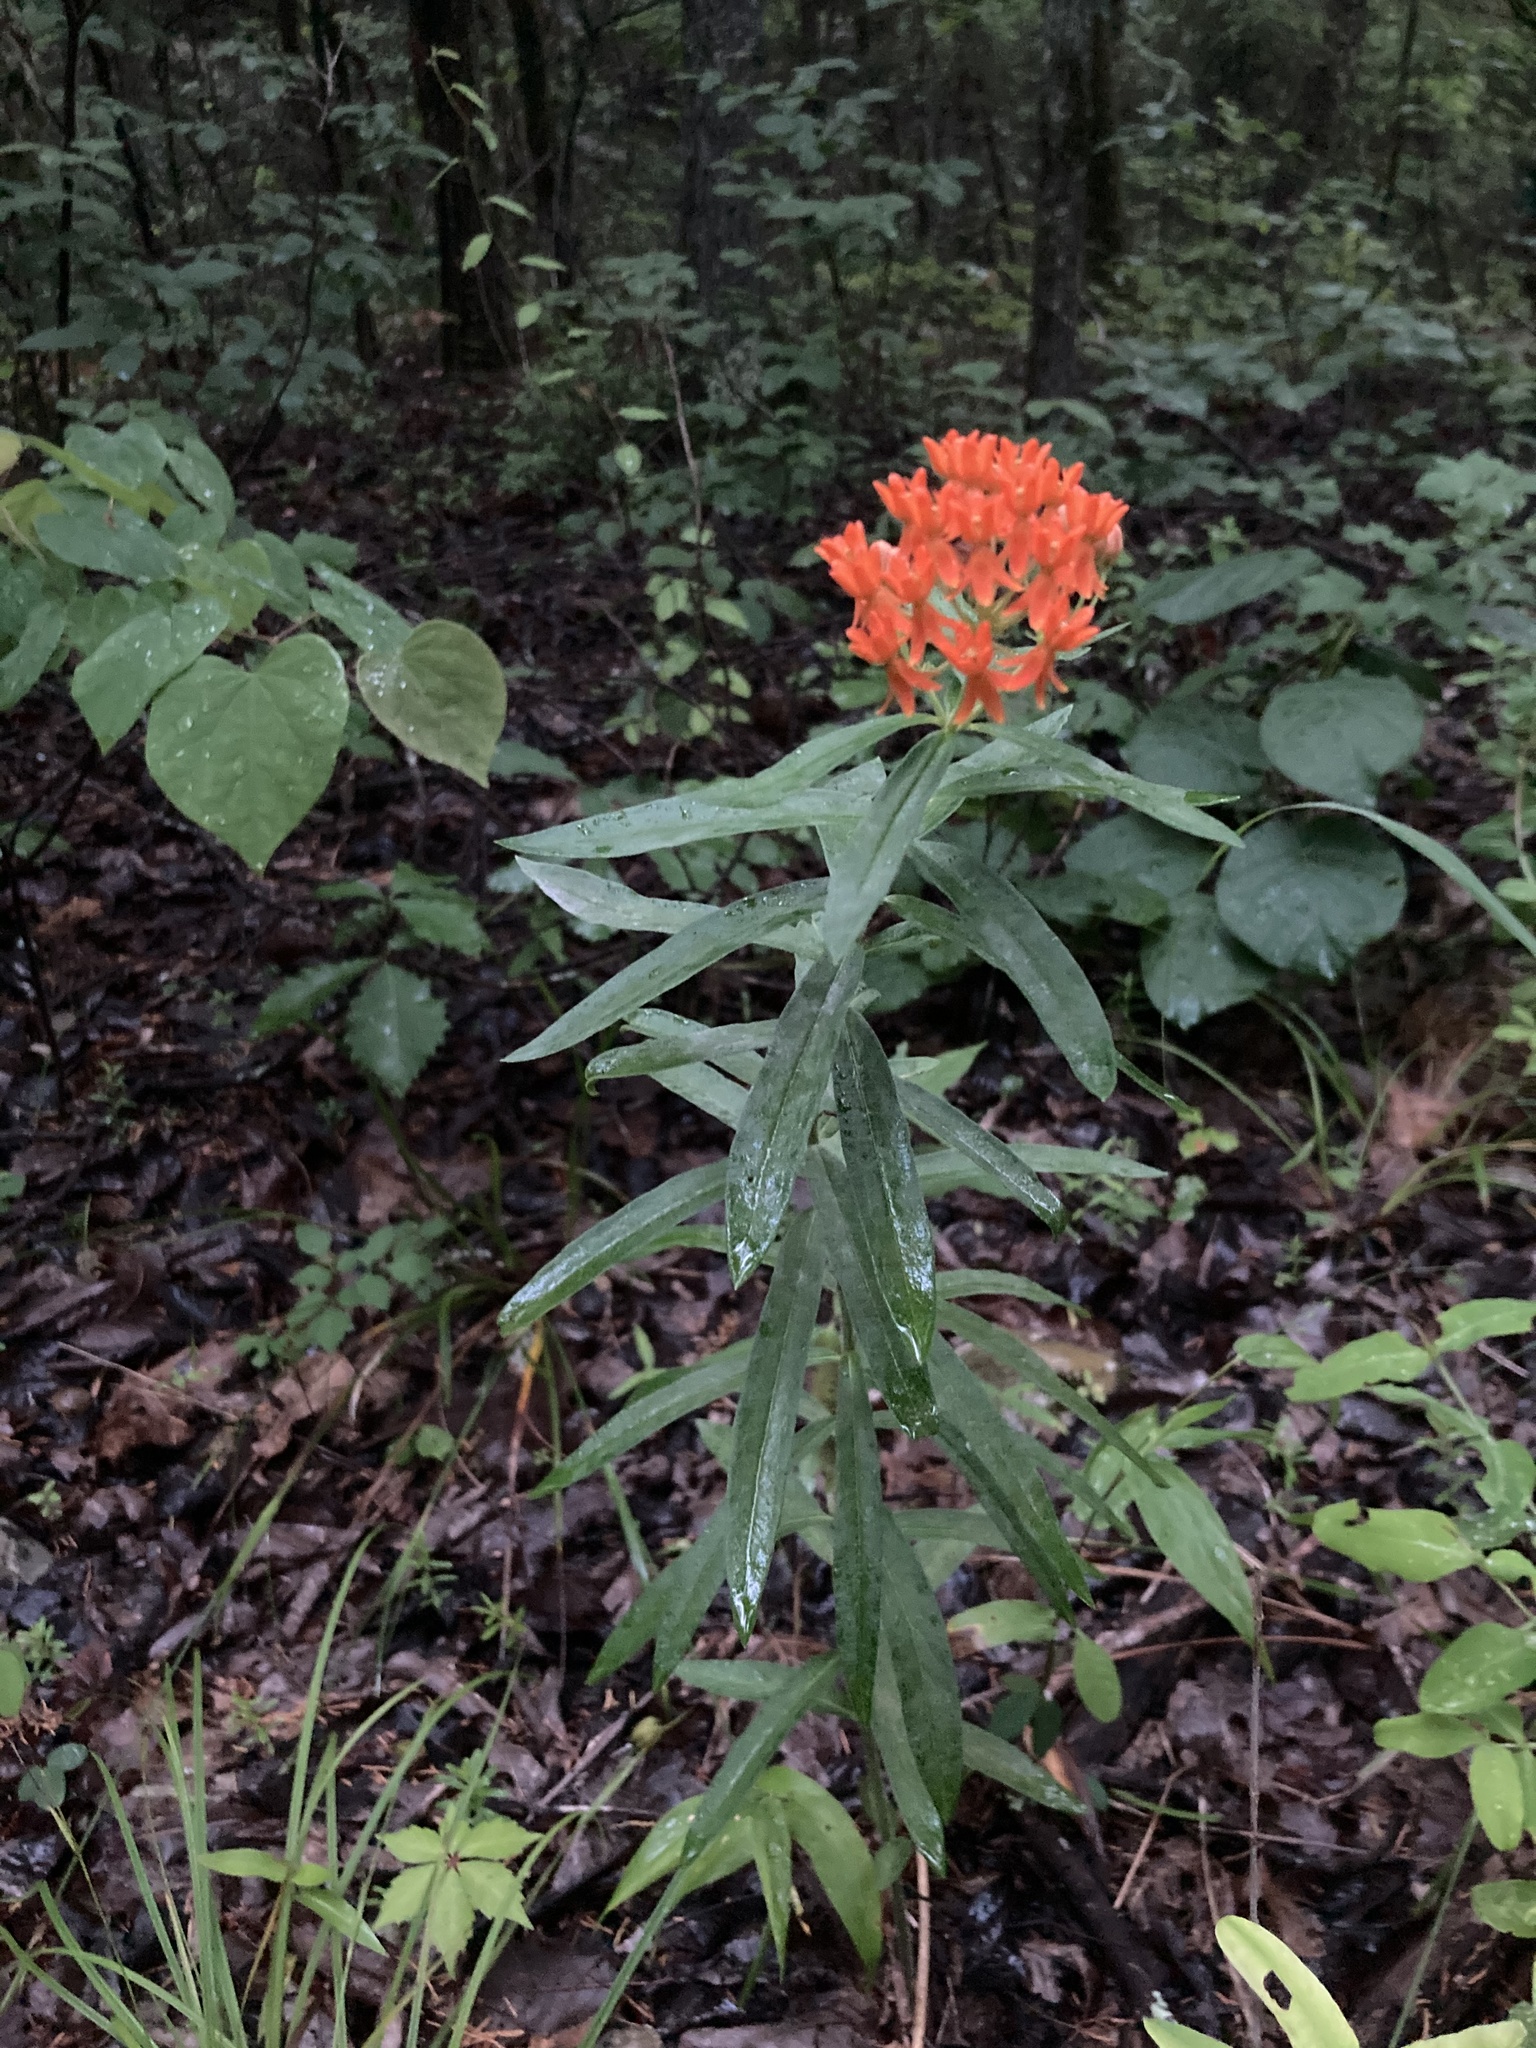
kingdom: Plantae
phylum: Tracheophyta
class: Magnoliopsida
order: Gentianales
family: Apocynaceae
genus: Asclepias
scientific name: Asclepias tuberosa
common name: Butterfly milkweed
